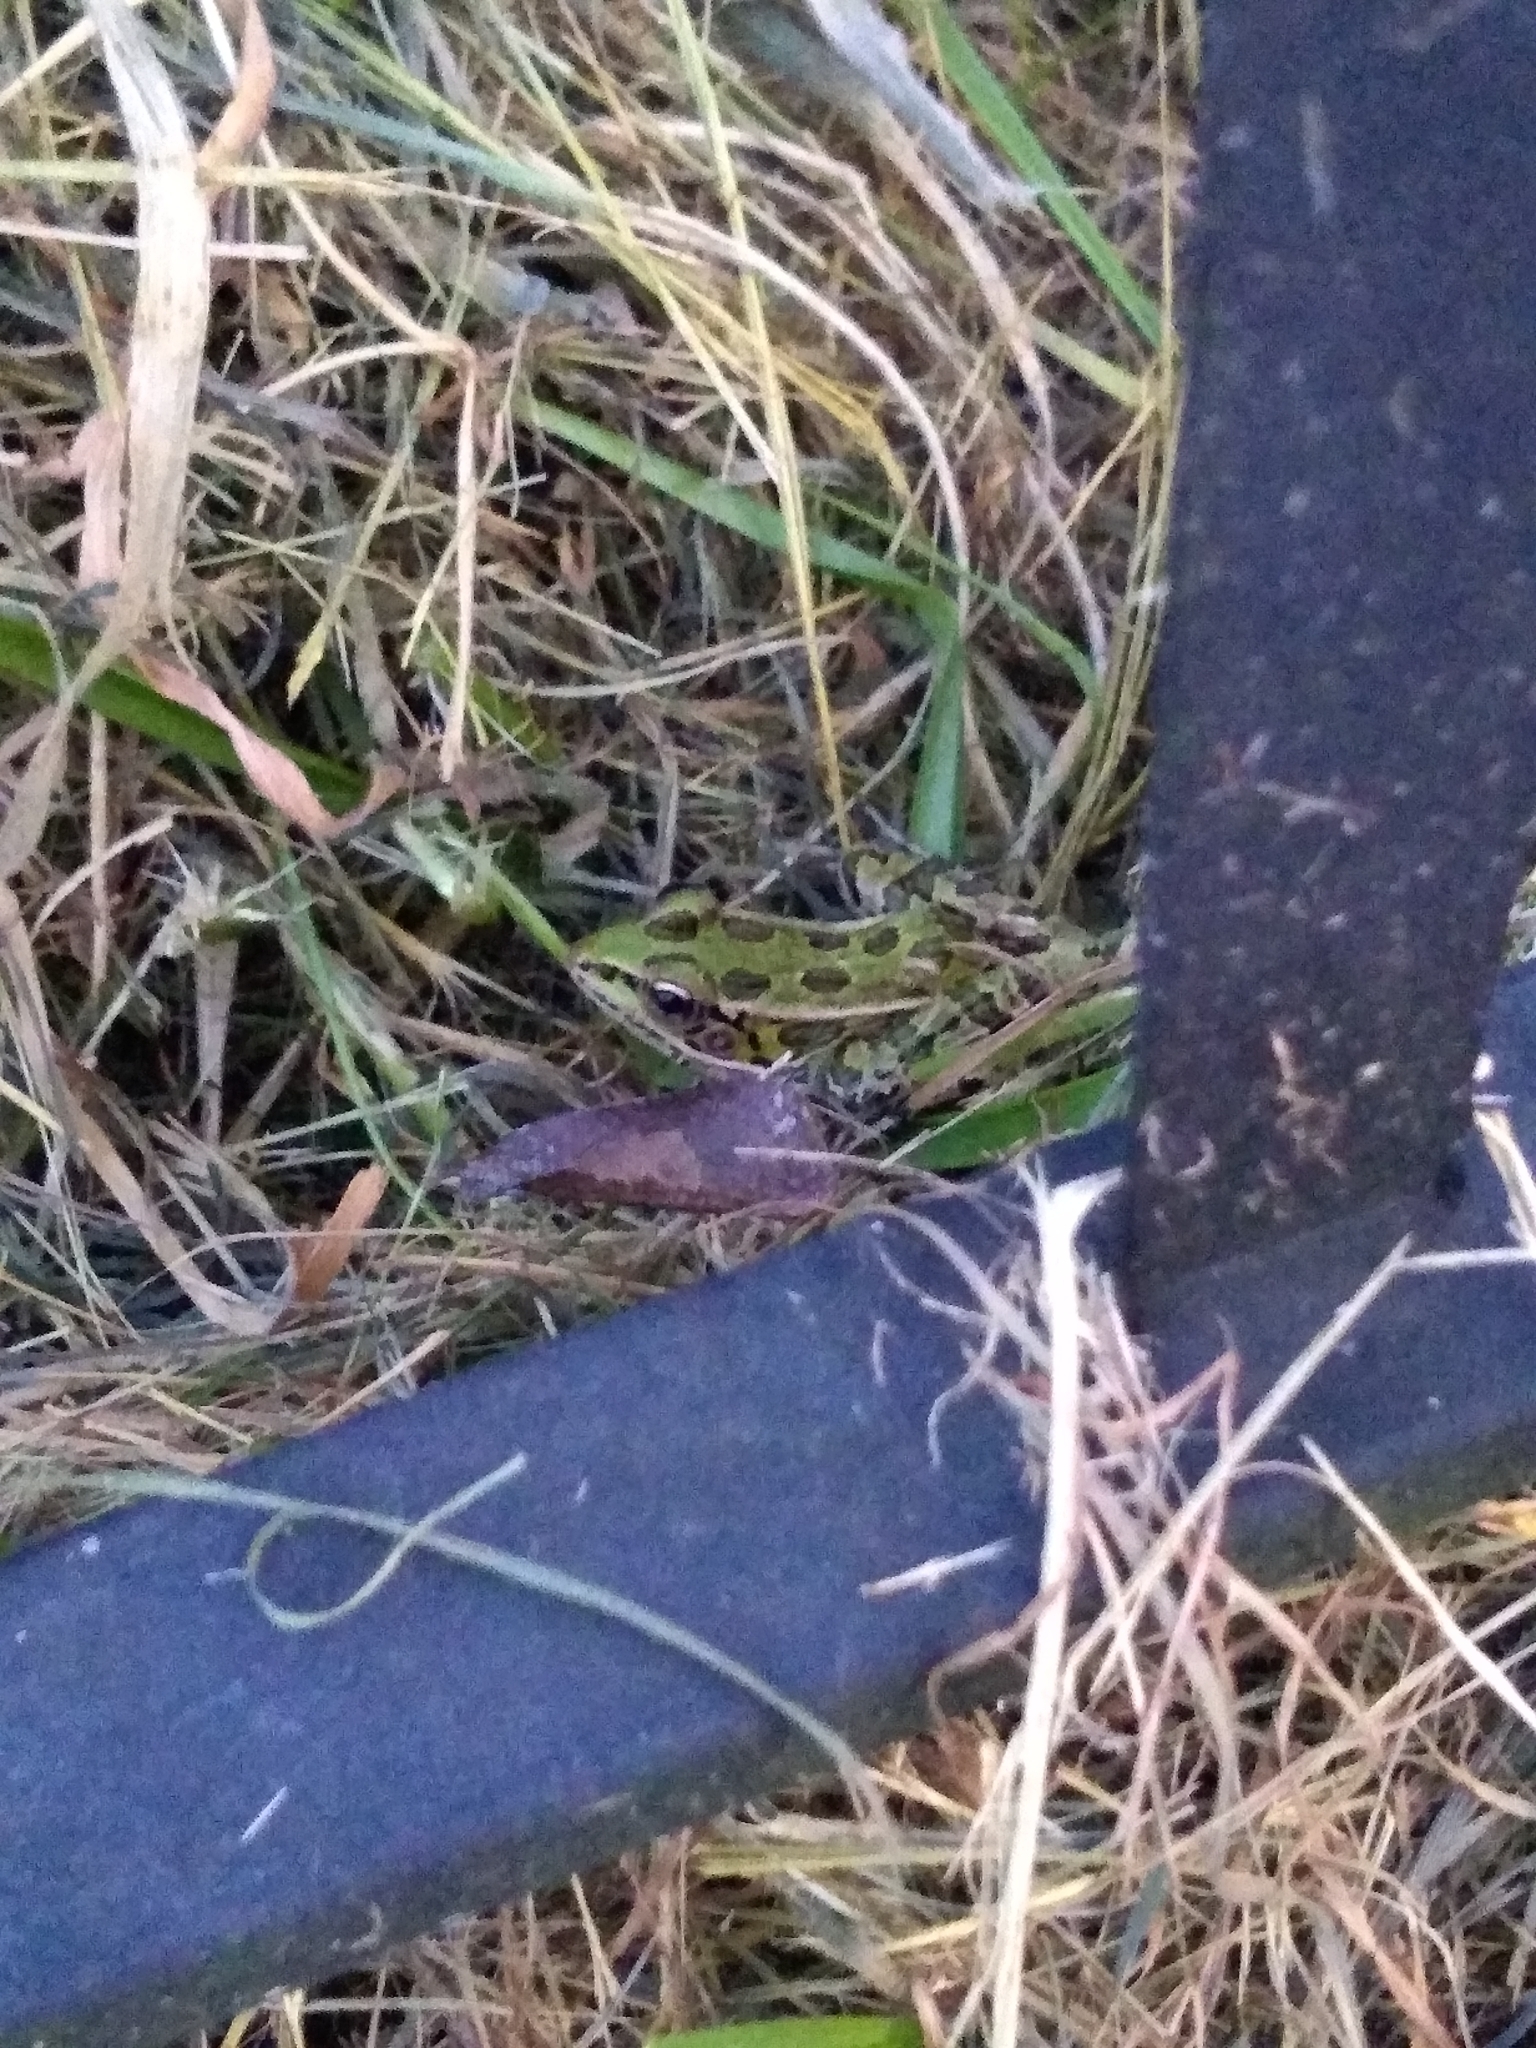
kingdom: Animalia
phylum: Chordata
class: Amphibia
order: Anura
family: Ranidae
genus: Lithobates
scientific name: Lithobates pipiens
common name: Northern leopard frog
